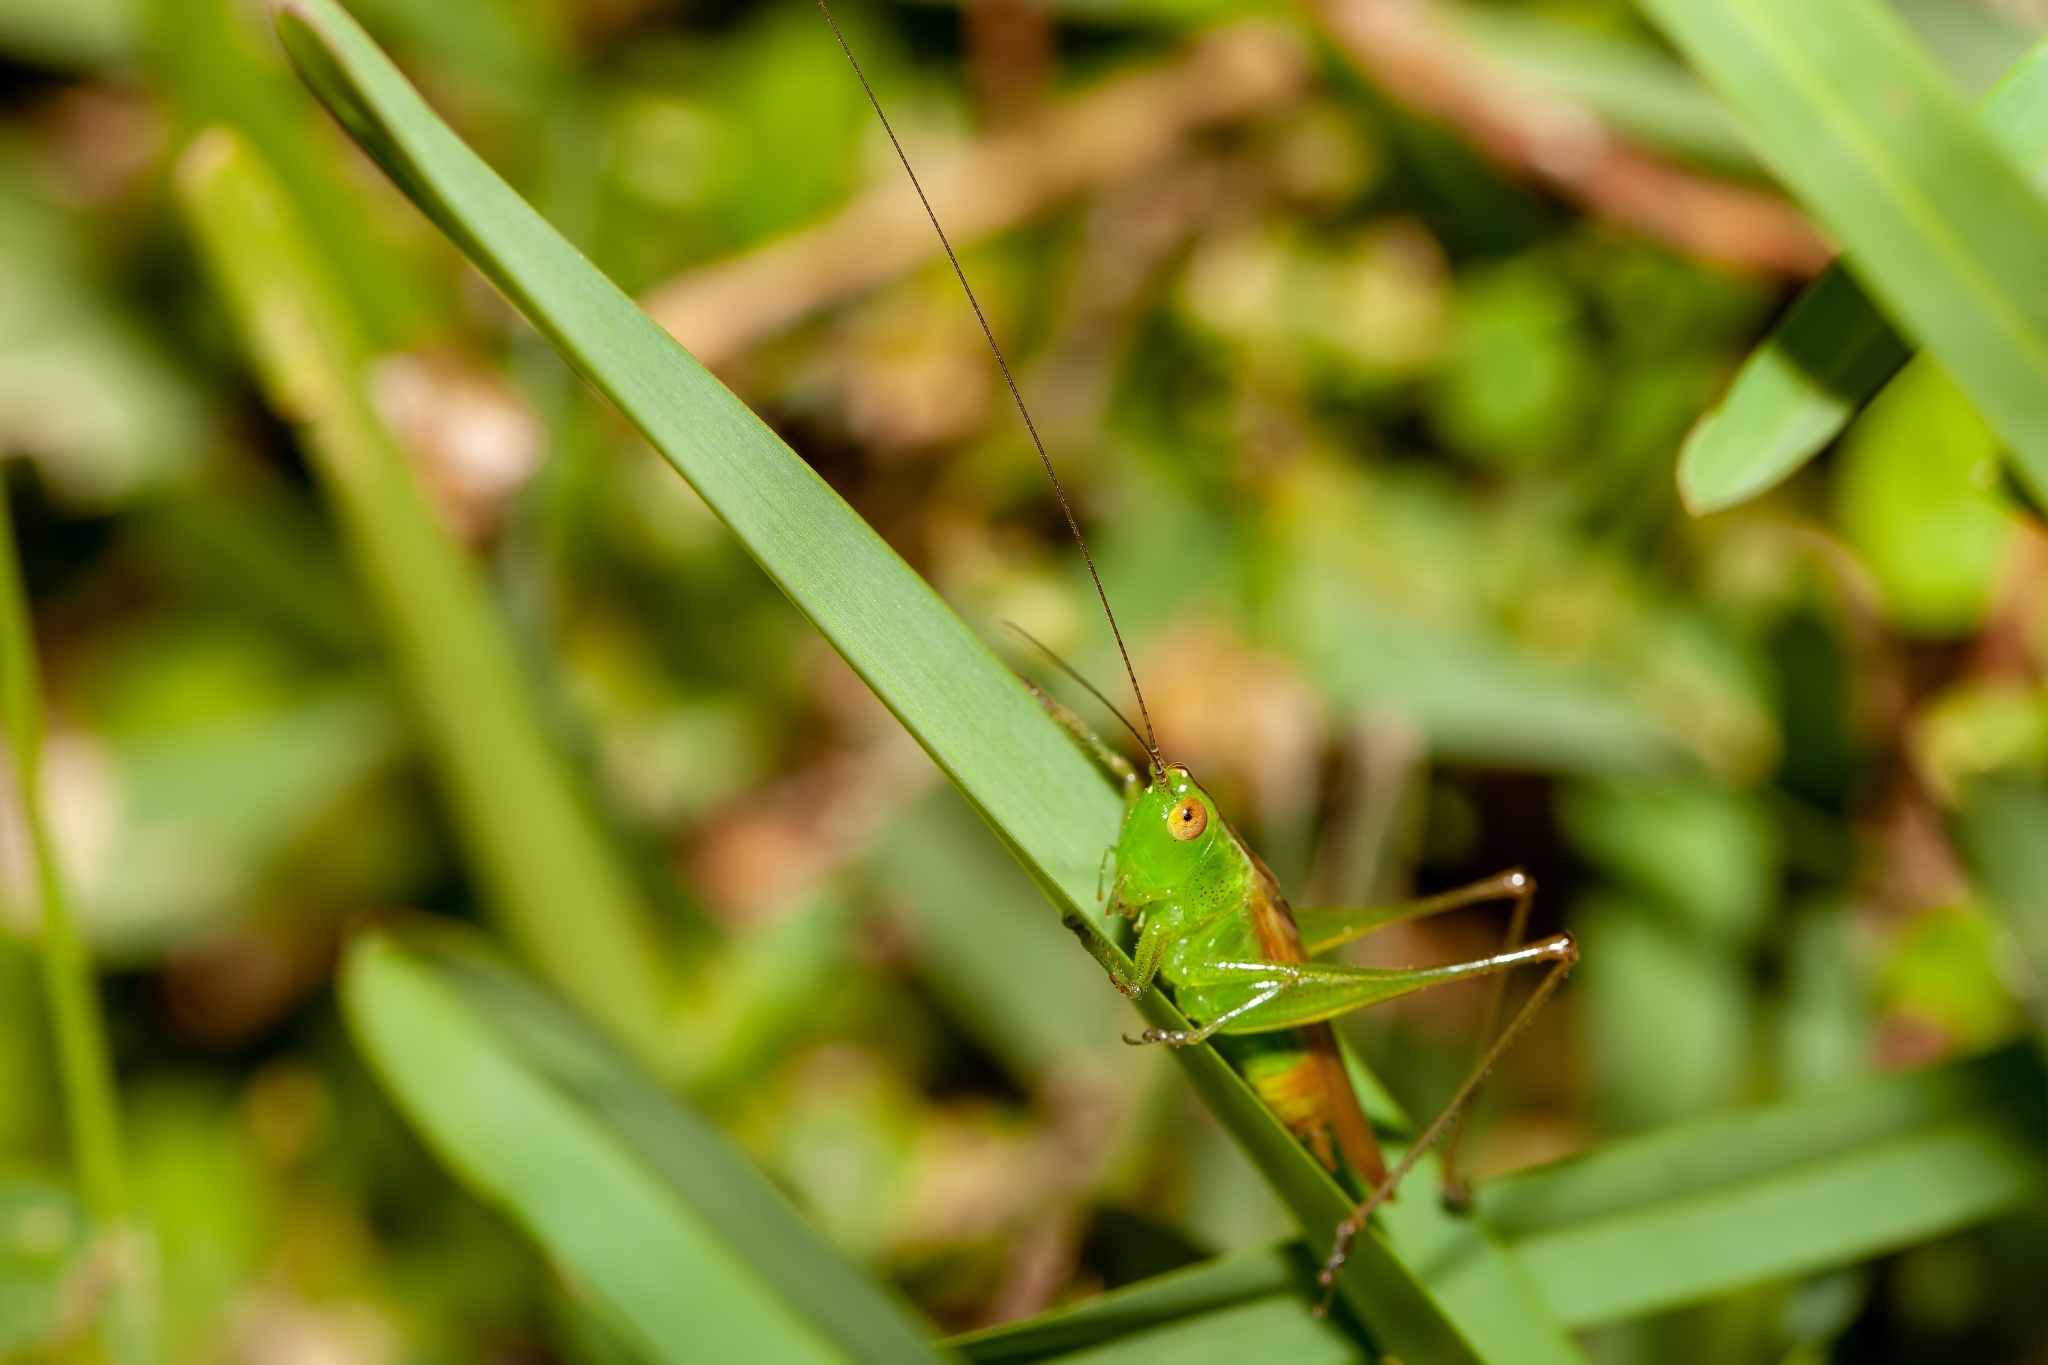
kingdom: Animalia
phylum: Arthropoda
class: Insecta
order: Orthoptera
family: Tettigoniidae
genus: Conocephalus
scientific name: Conocephalus cinereus
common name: Caribbean meadow katydid
